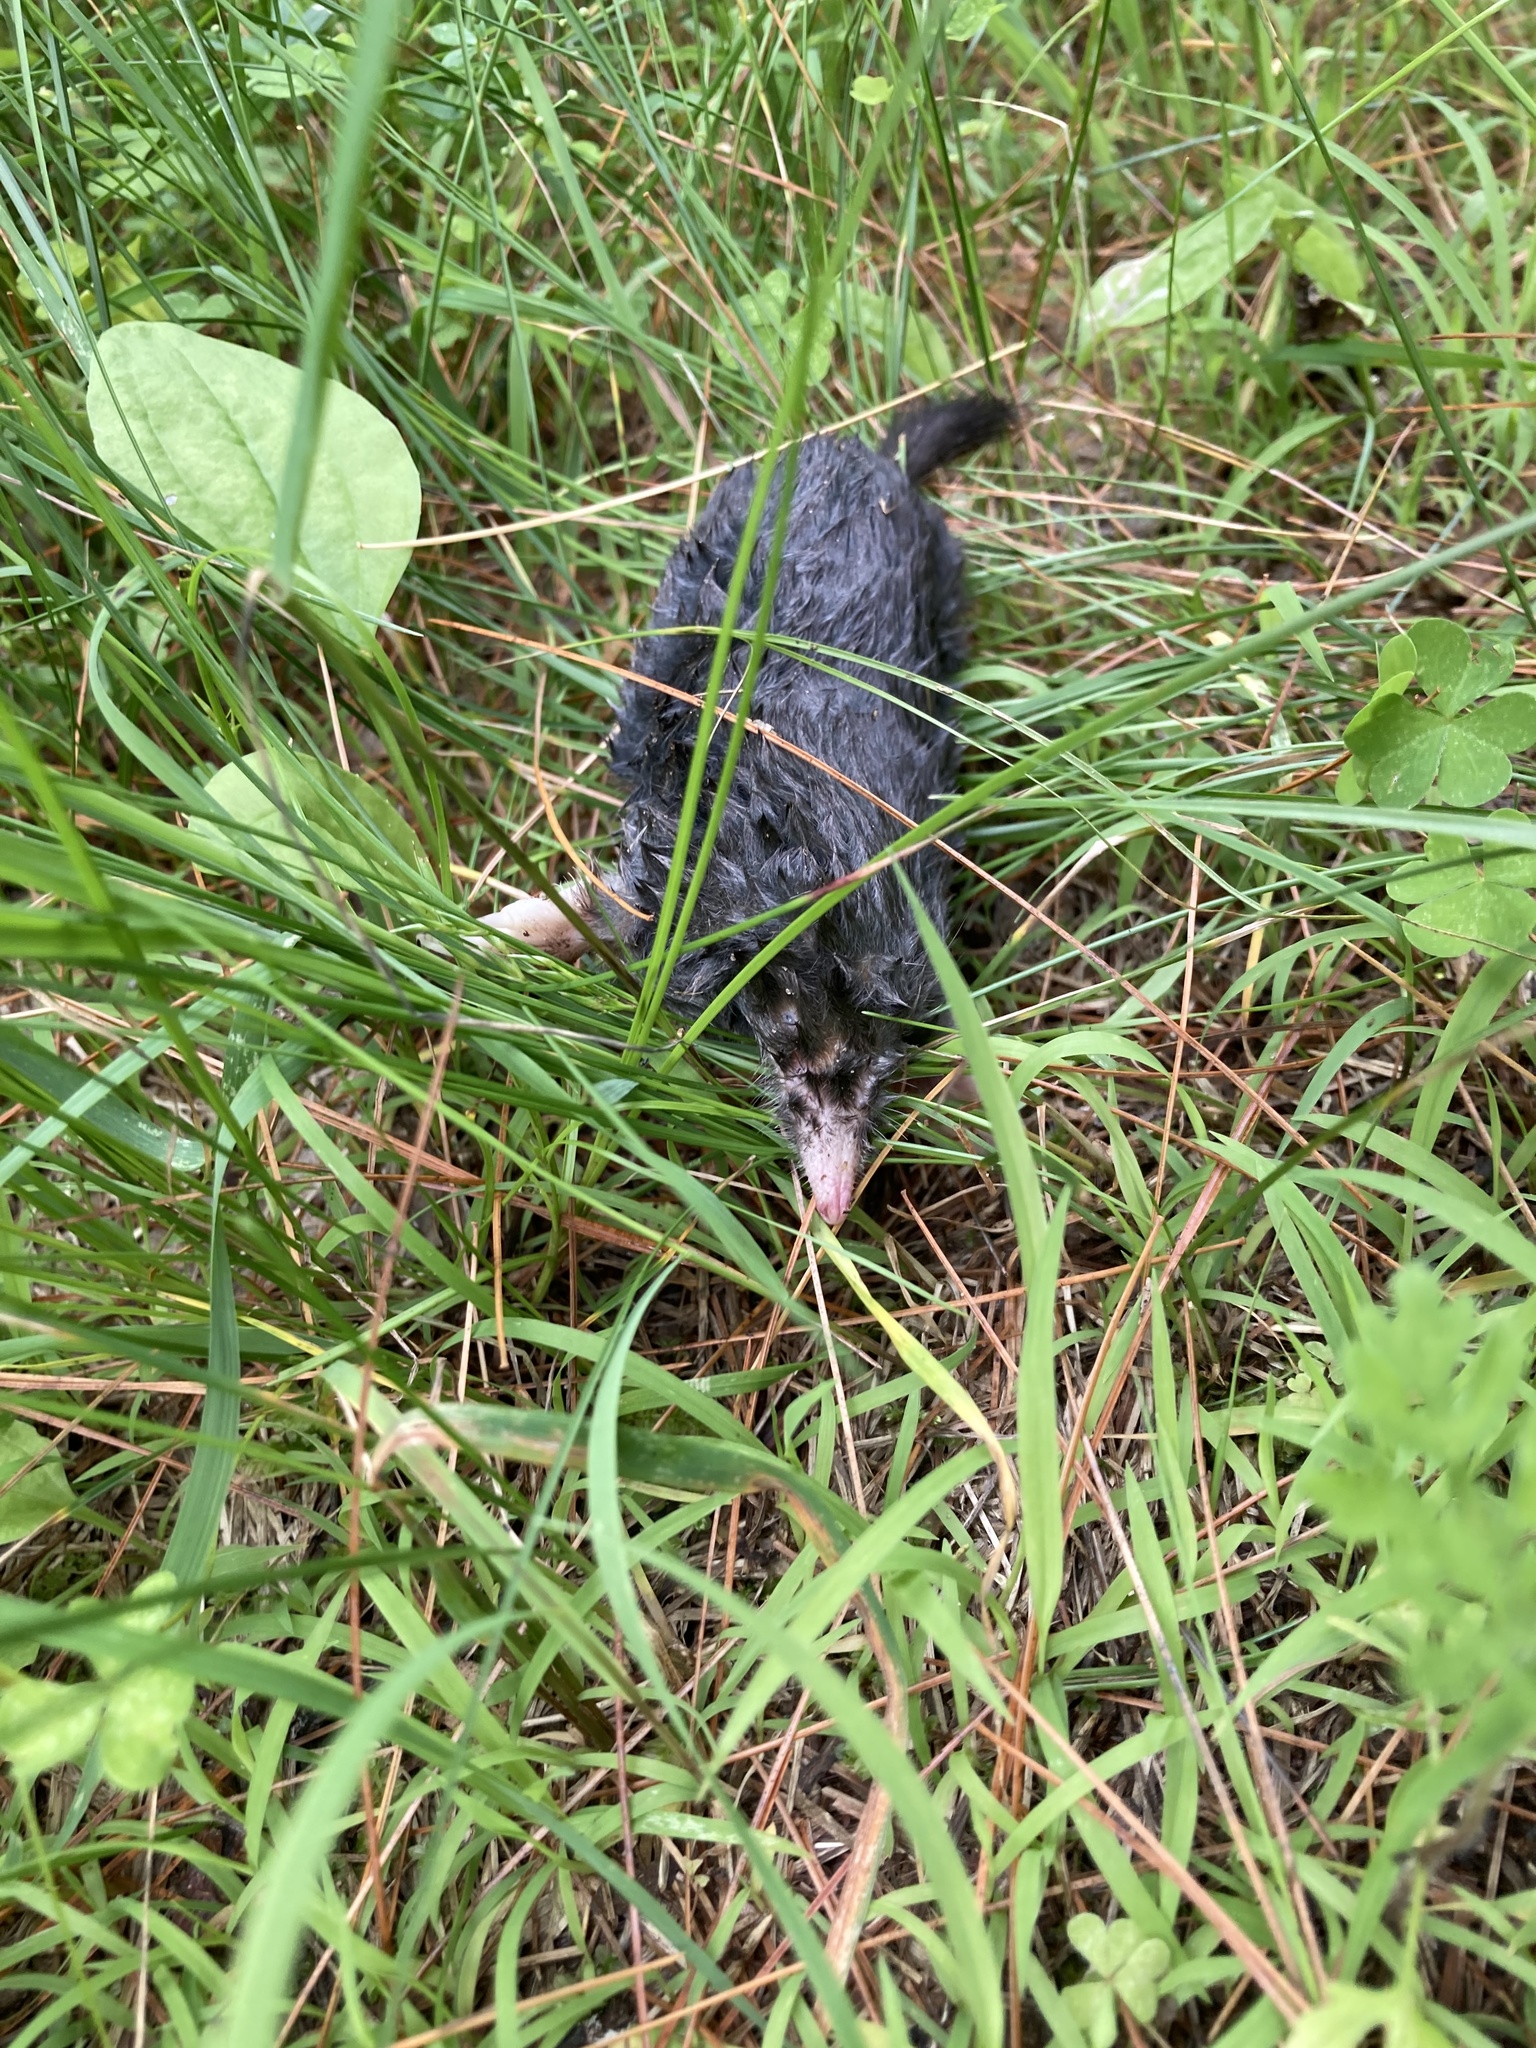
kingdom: Animalia
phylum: Chordata
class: Mammalia
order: Soricomorpha
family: Talpidae
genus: Parascalops
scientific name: Parascalops breweri
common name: Hairy-tailed mole
